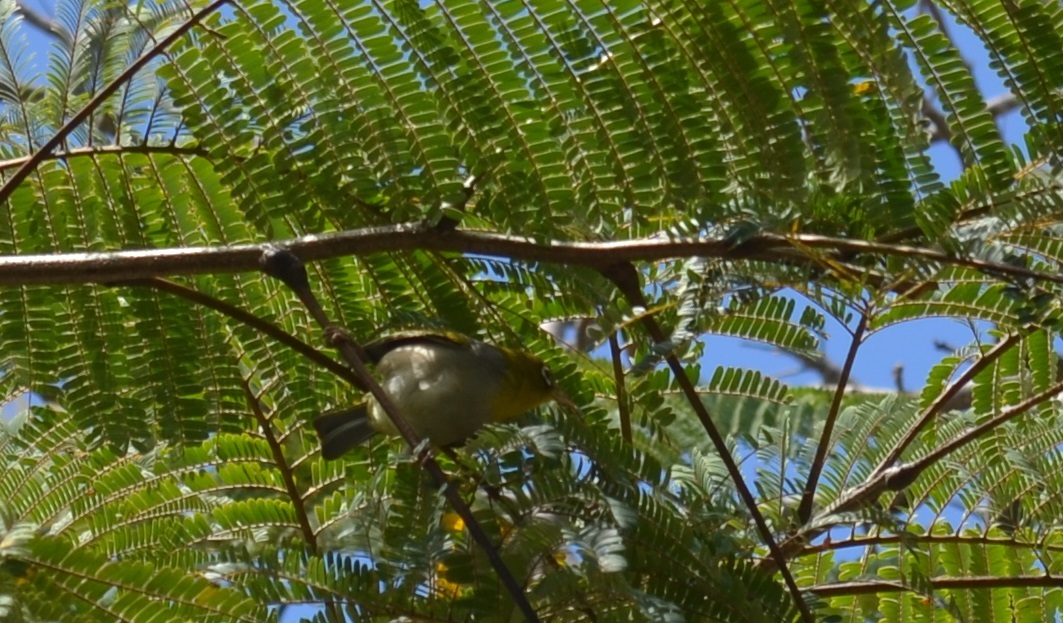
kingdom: Animalia
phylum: Chordata
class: Aves
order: Passeriformes
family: Zosteropidae
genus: Zosterops
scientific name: Zosterops lateralis
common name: Silvereye
